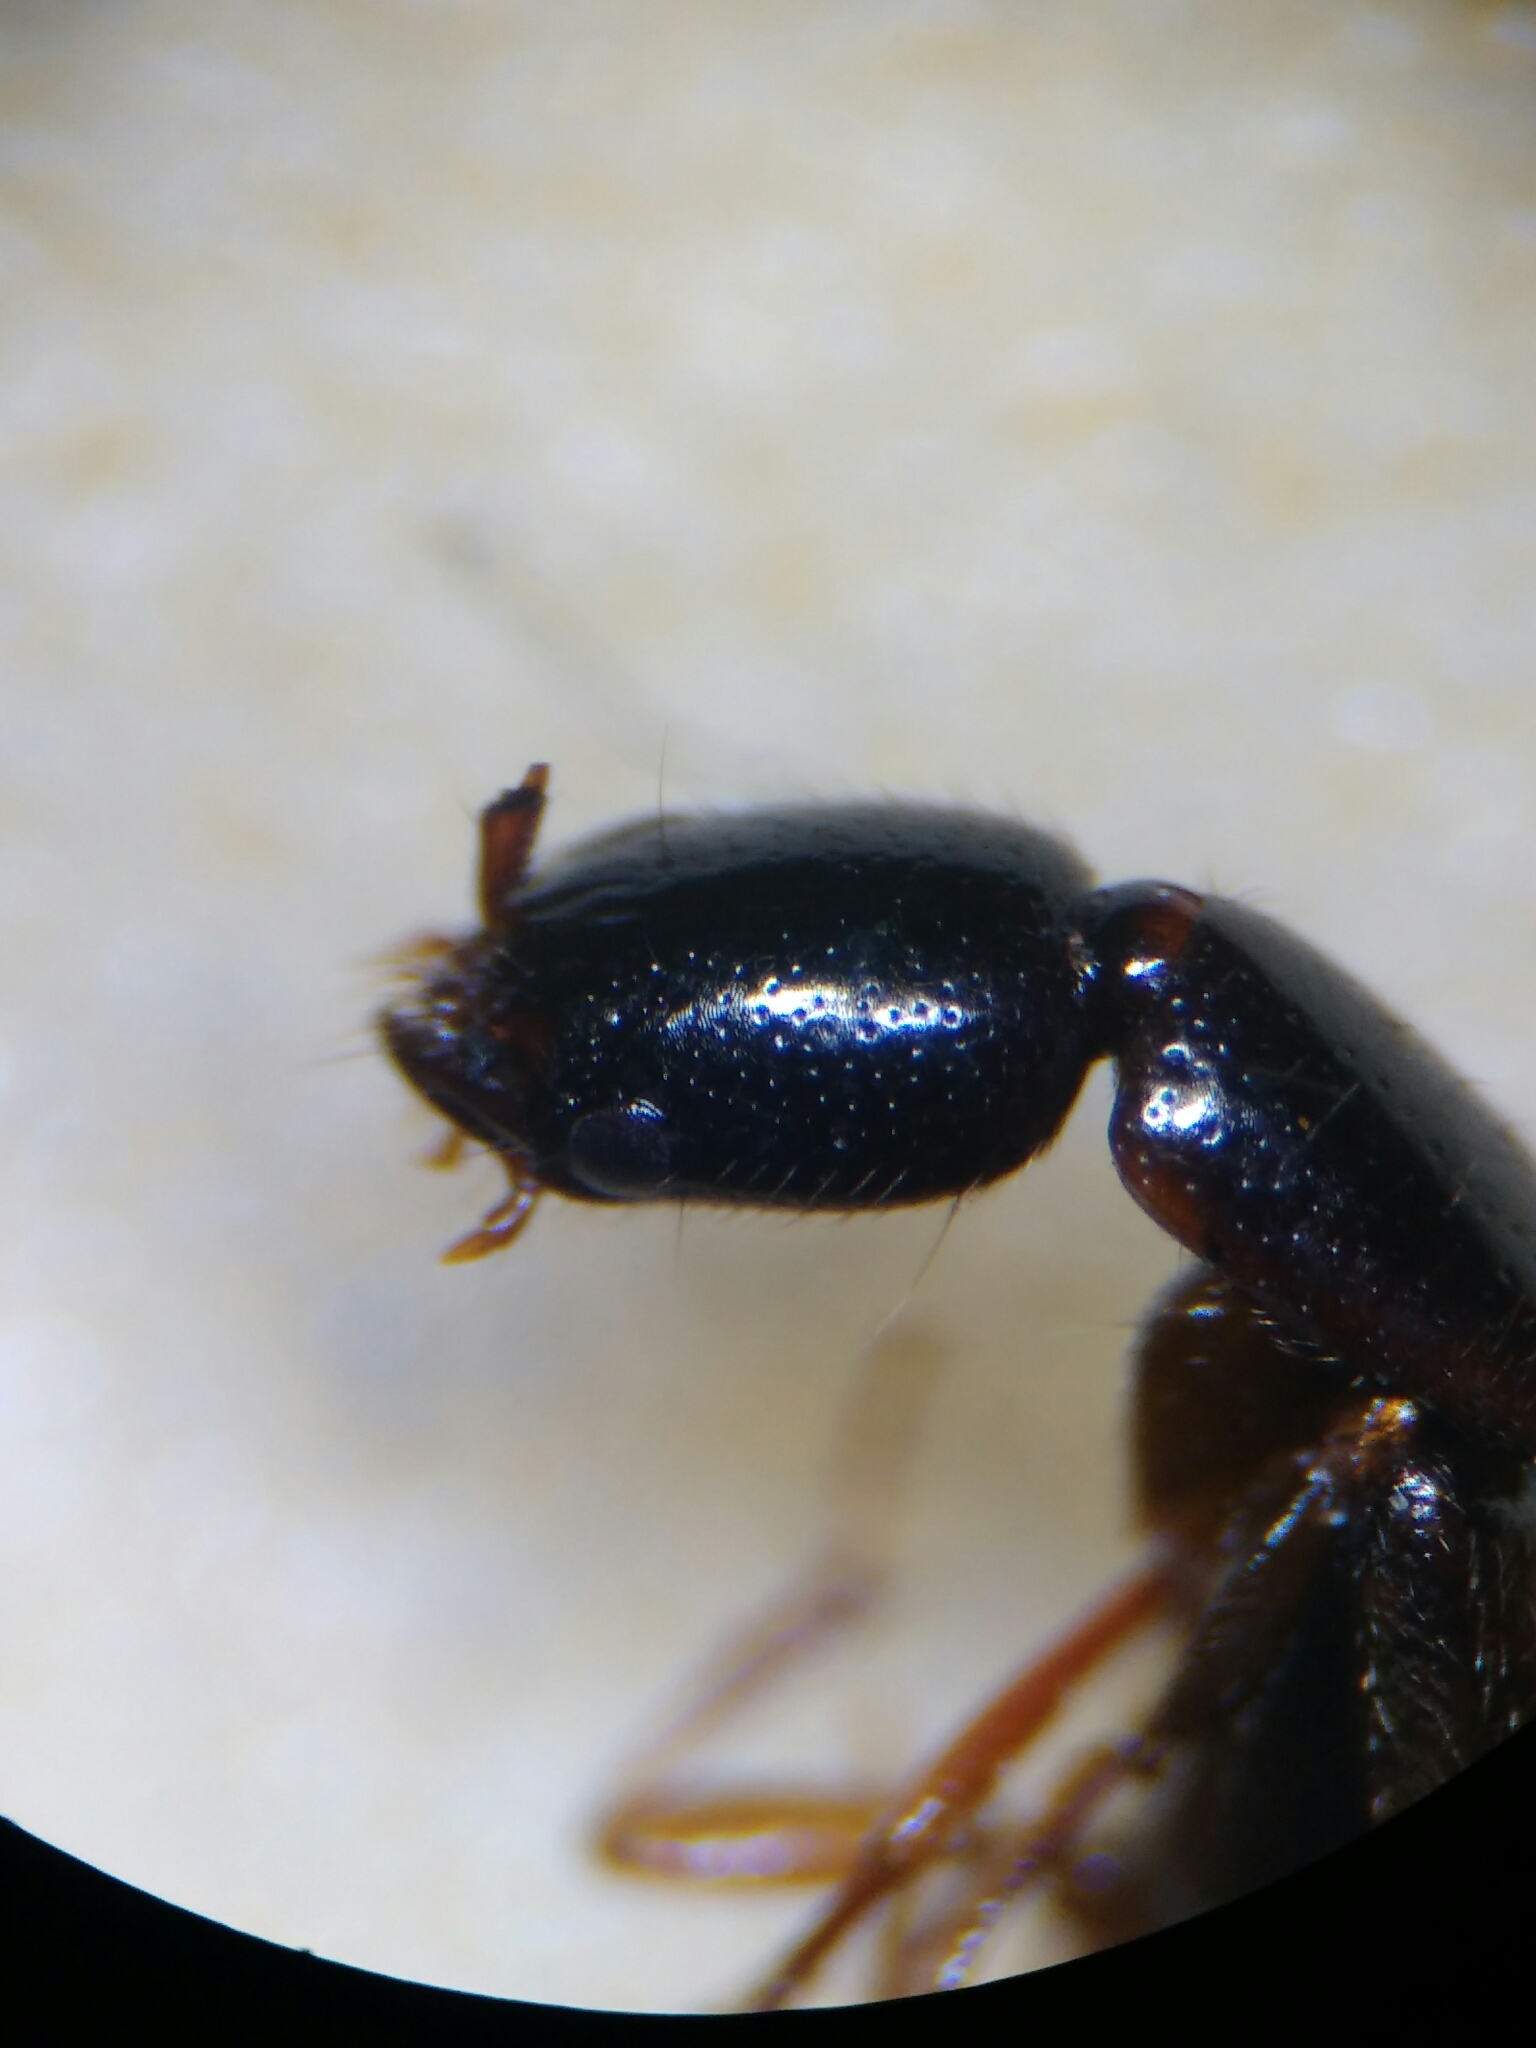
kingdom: Animalia
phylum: Arthropoda
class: Insecta
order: Coleoptera
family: Staphylinidae
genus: Xantholinus
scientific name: Xantholinus
